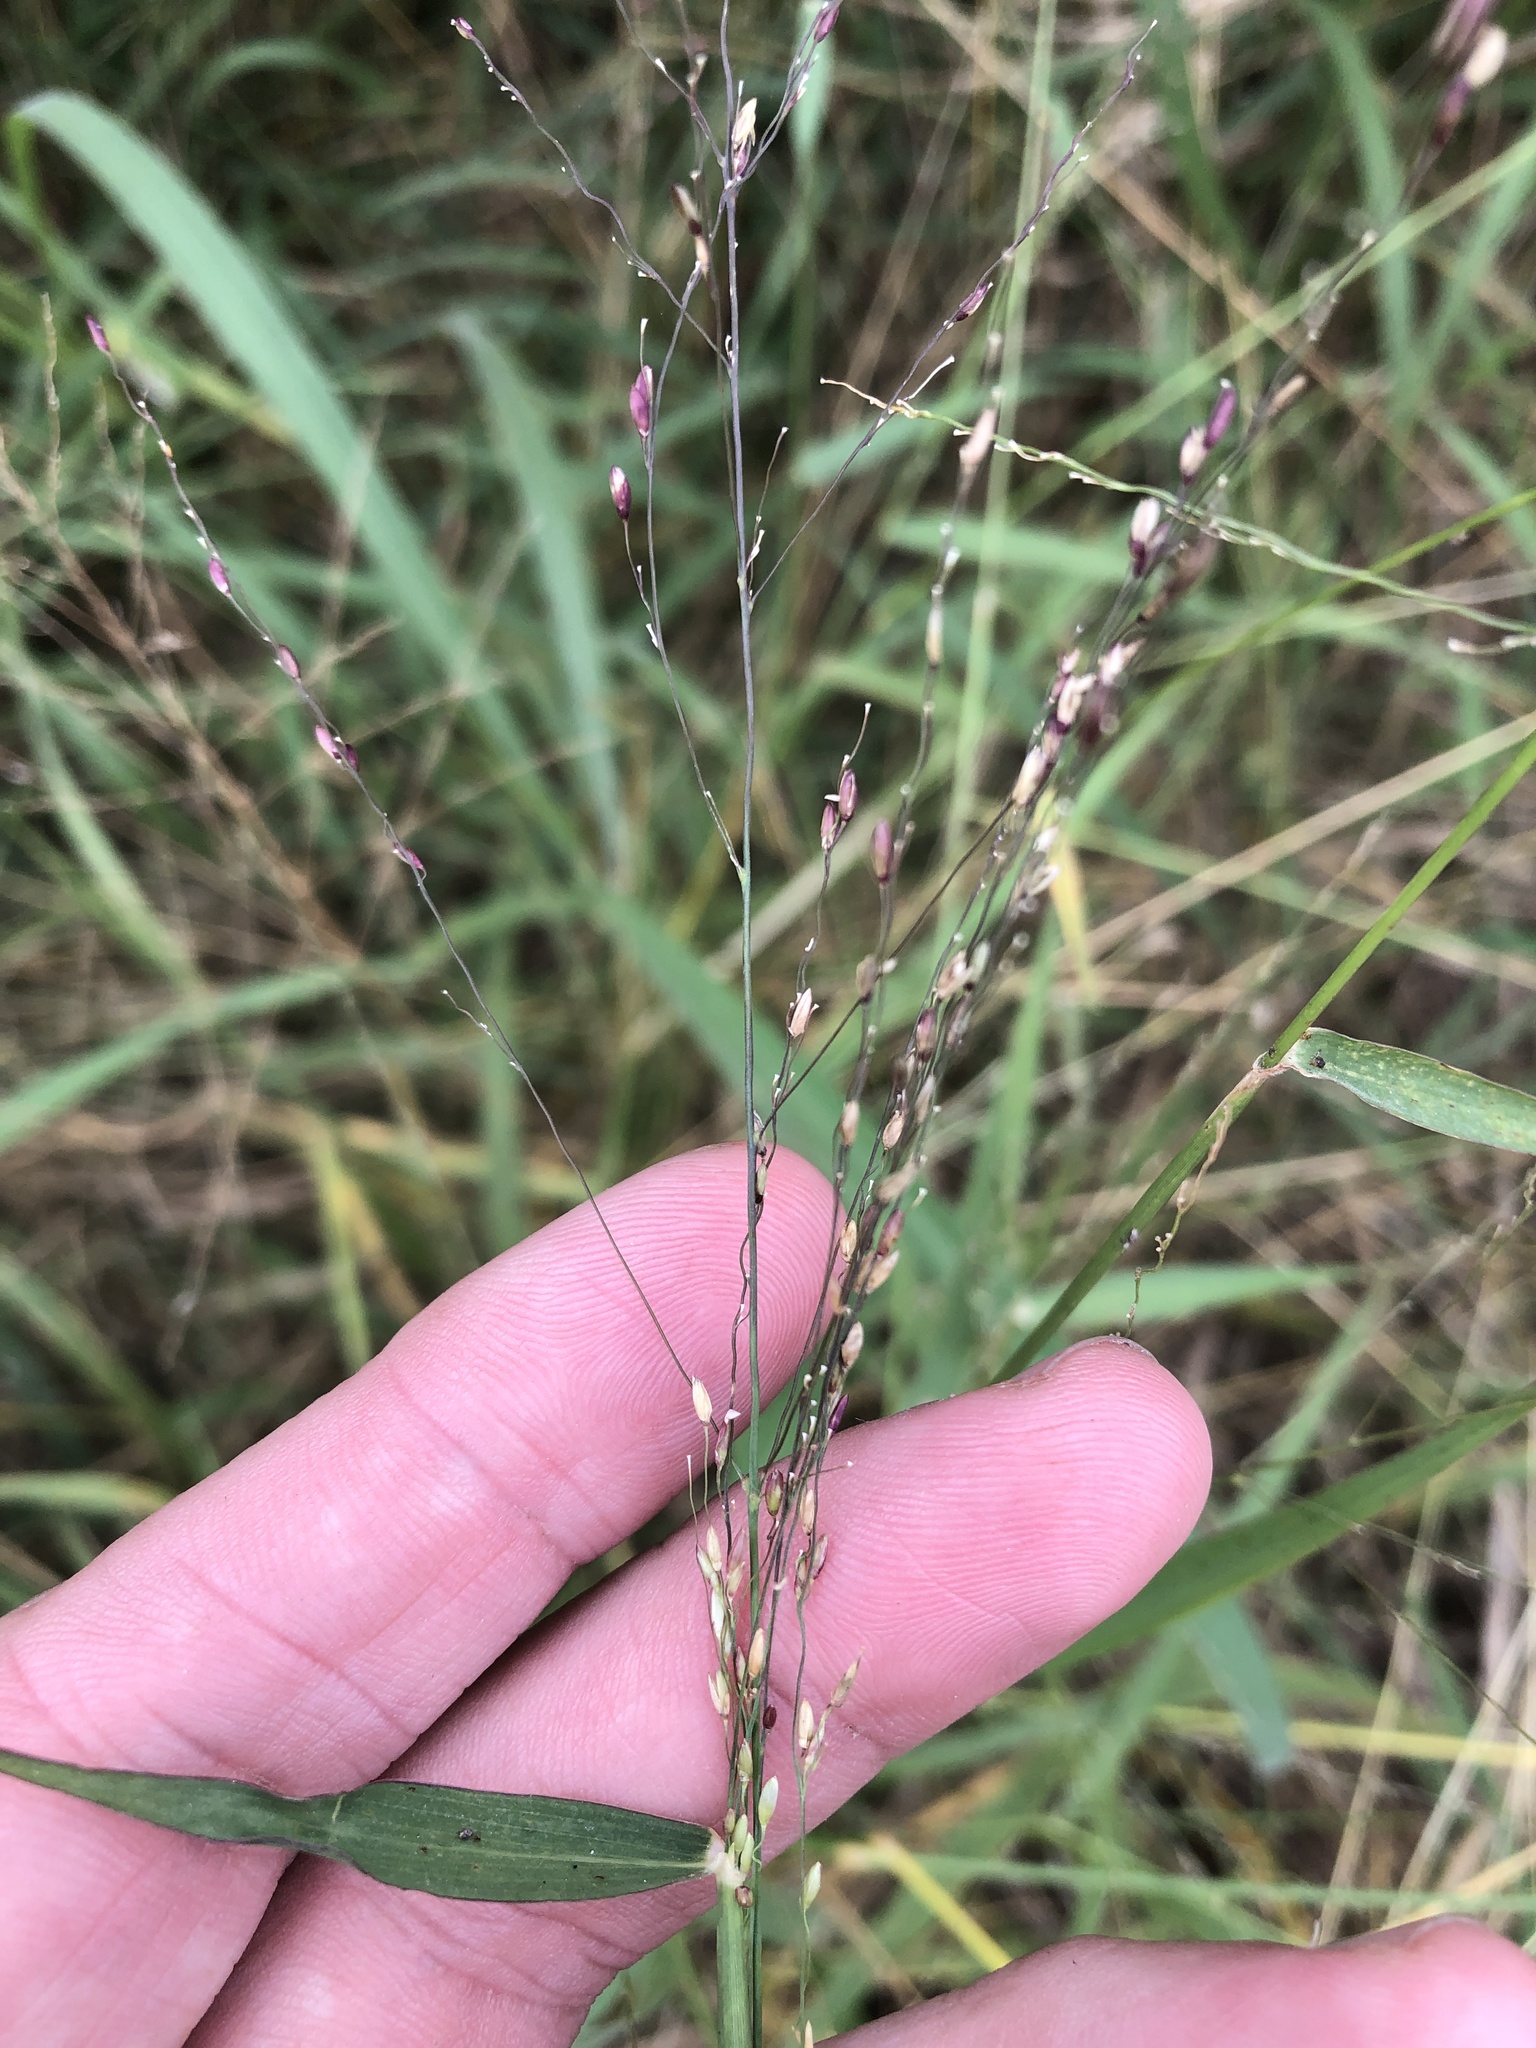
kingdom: Plantae
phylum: Tracheophyta
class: Liliopsida
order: Poales
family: Poaceae
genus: Megathyrsus
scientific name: Megathyrsus maximus
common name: Guineagrass
